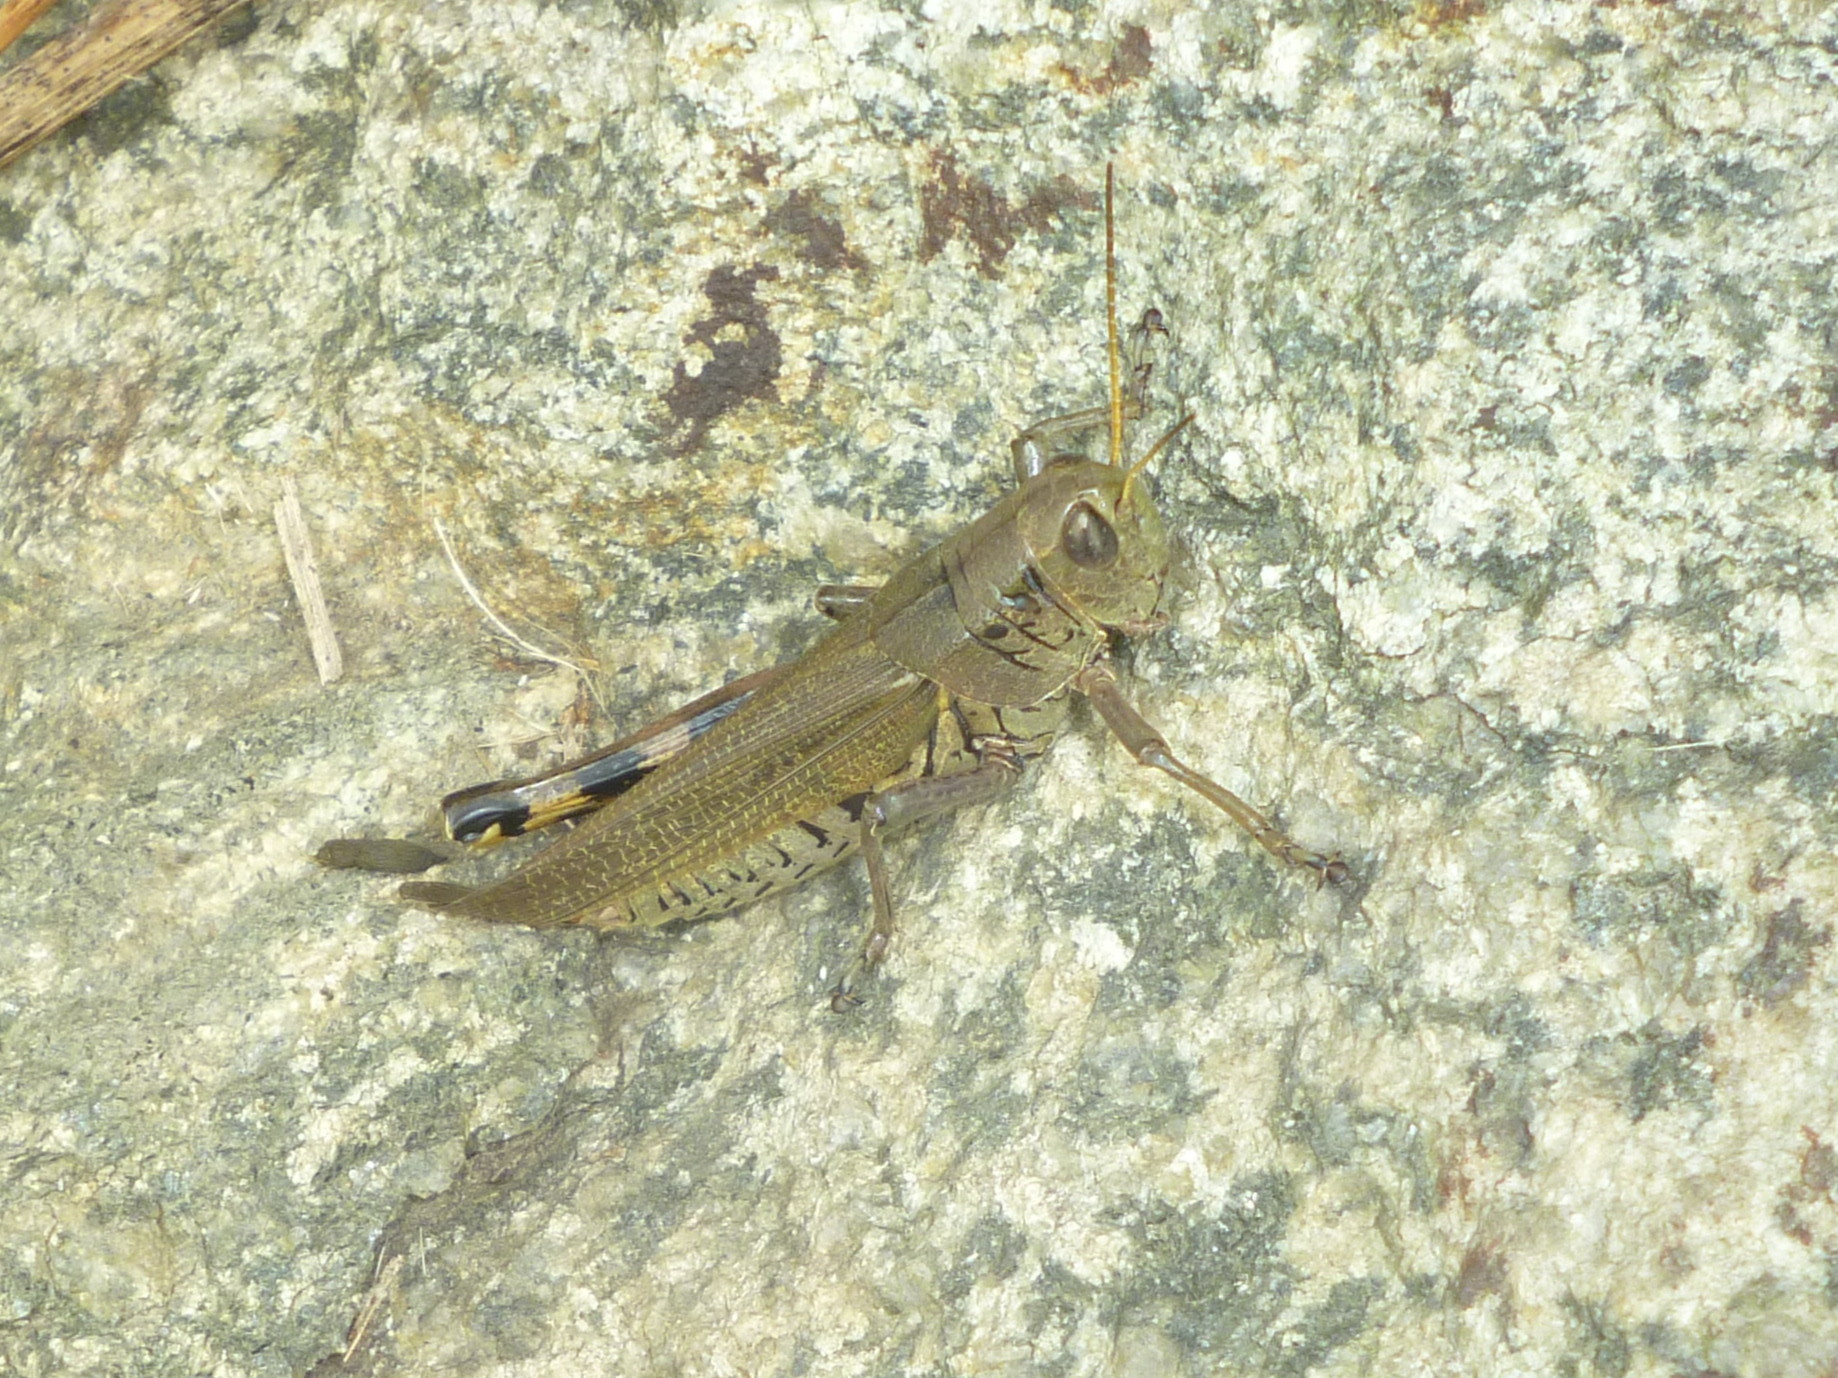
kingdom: Animalia
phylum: Arthropoda
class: Insecta
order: Orthoptera
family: Acrididae
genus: Melanoplus
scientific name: Melanoplus differentialis
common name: Differential grasshopper
